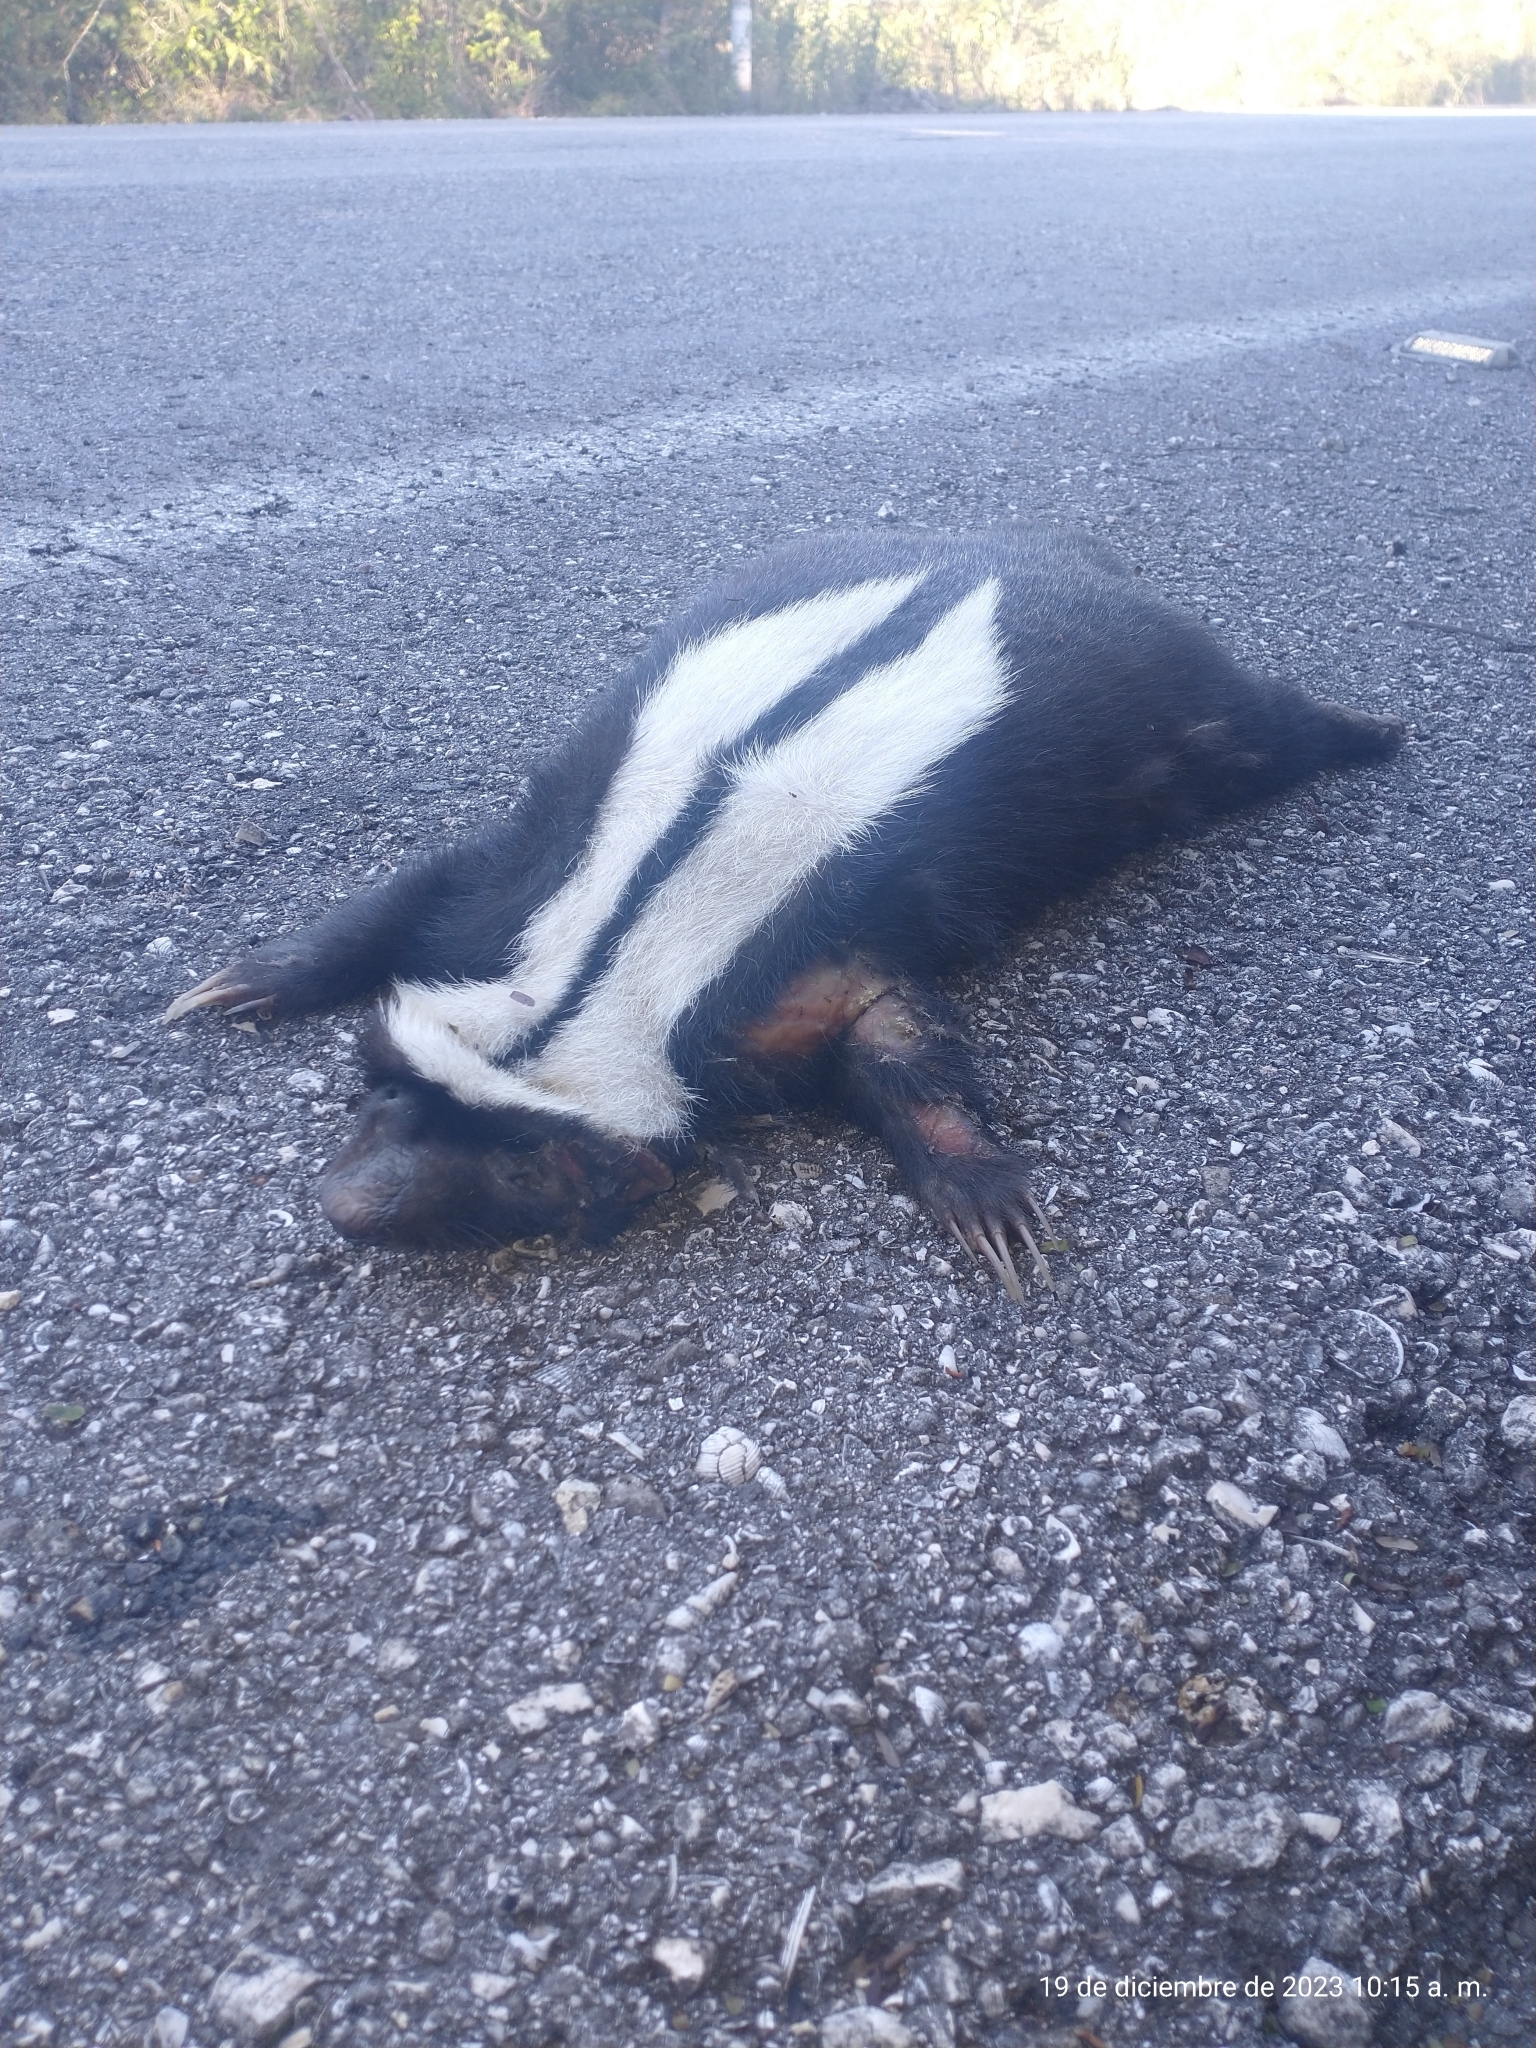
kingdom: Animalia
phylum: Chordata
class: Mammalia
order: Carnivora
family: Mephitidae
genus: Conepatus
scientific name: Conepatus semistriatus
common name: Striped hog-nosed skunk
